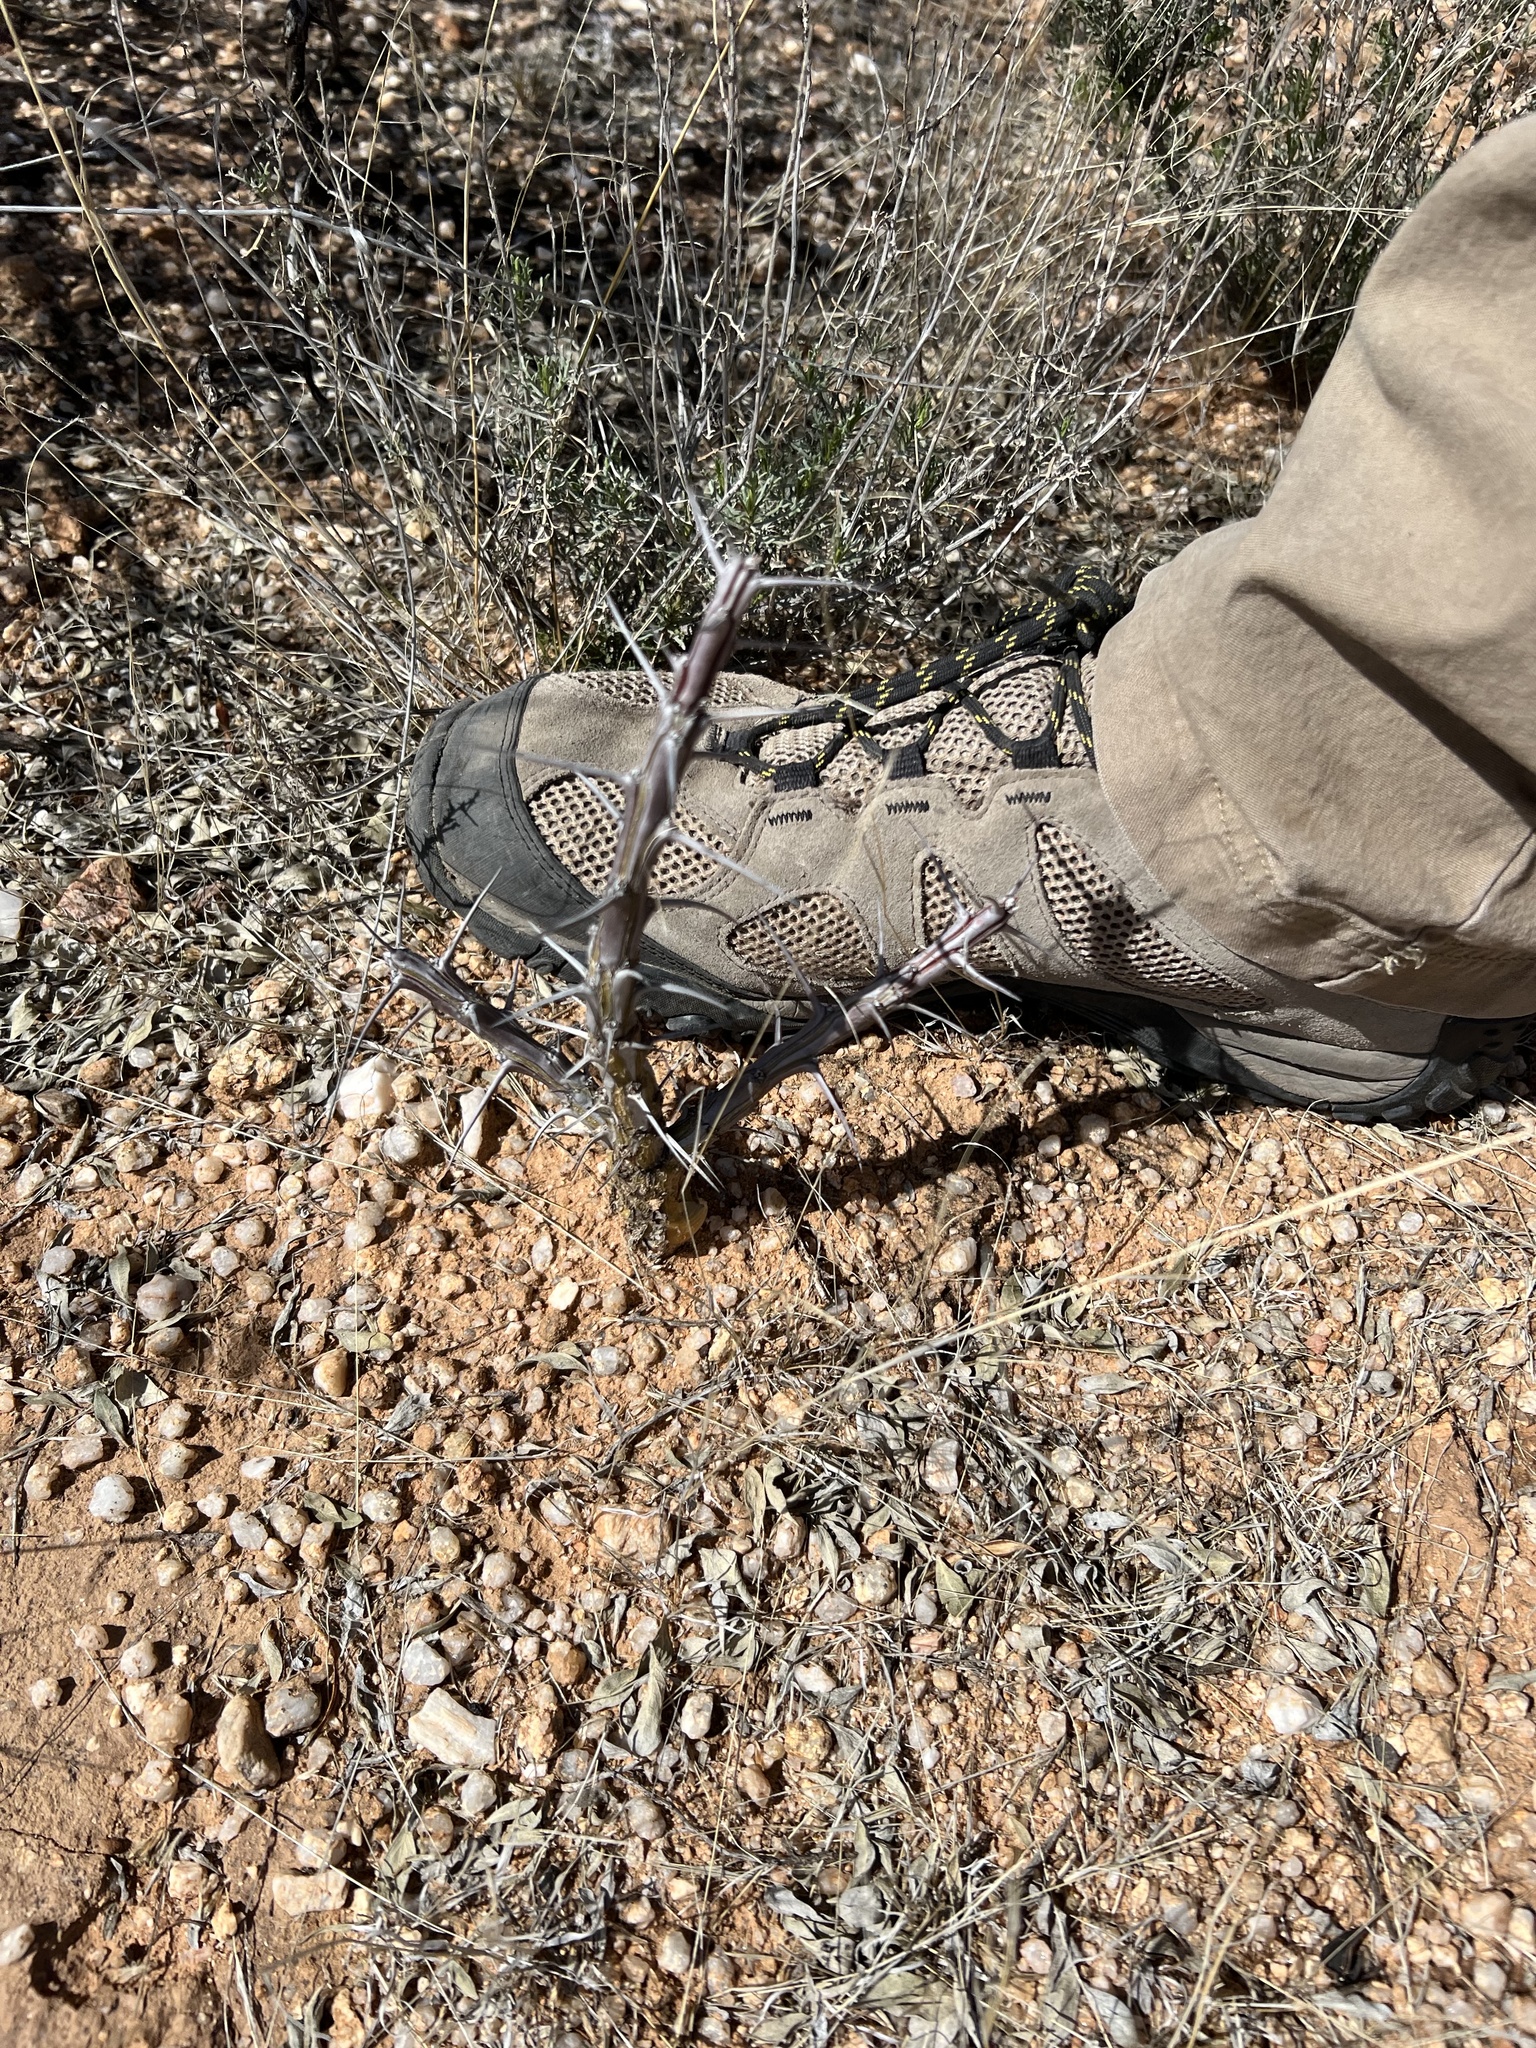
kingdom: Plantae
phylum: Tracheophyta
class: Magnoliopsida
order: Ericales
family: Fouquieriaceae
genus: Fouquieria
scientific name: Fouquieria splendens
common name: Vine-cactus
